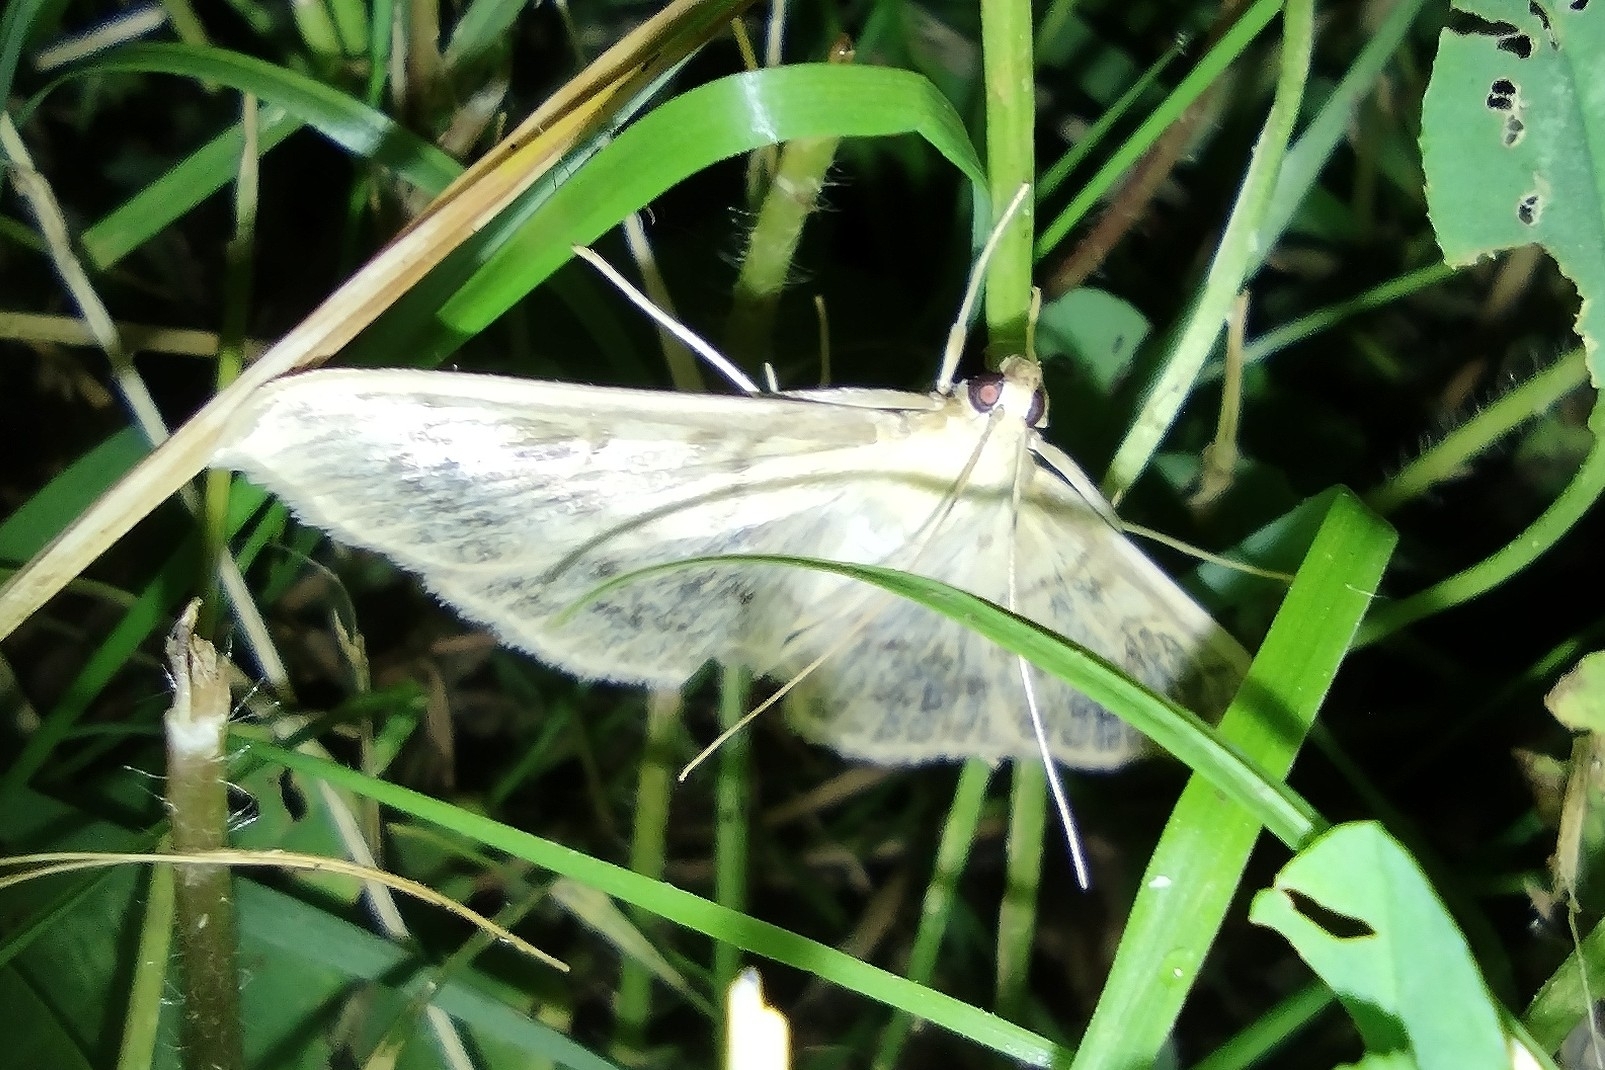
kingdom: Animalia
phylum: Arthropoda
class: Insecta
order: Lepidoptera
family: Crambidae
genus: Patania
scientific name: Patania ruralis
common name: Mother of pearl
